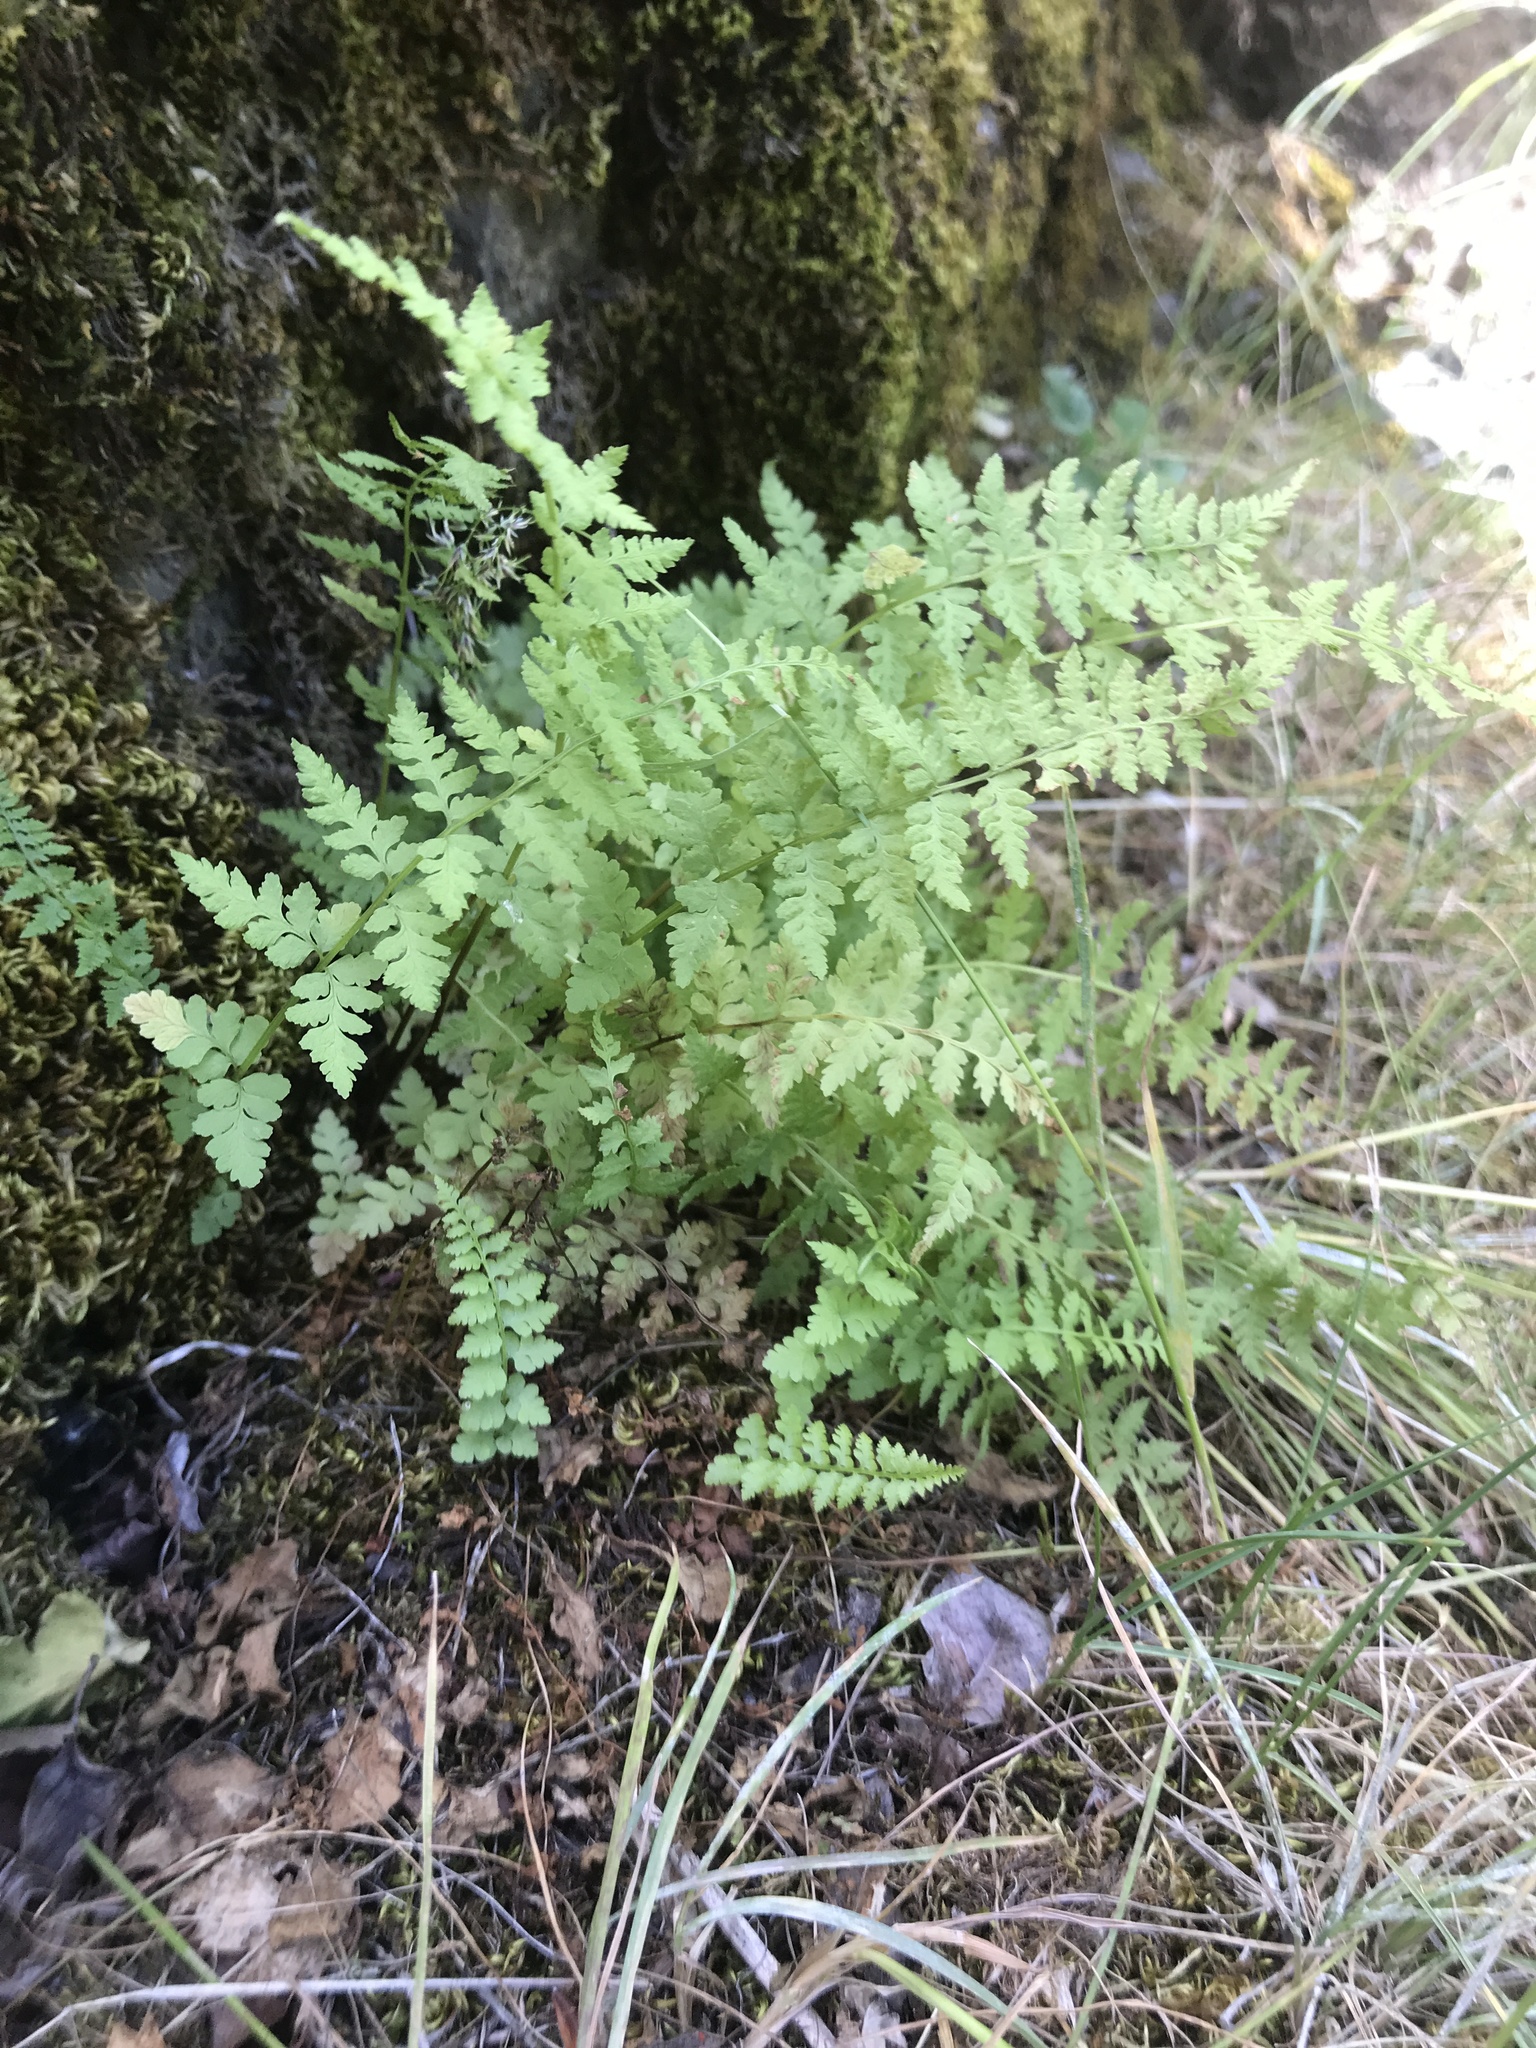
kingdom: Plantae
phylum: Tracheophyta
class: Polypodiopsida
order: Polypodiales
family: Cystopteridaceae
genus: Cystopteris
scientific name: Cystopteris fragilis
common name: Brittle bladder fern
